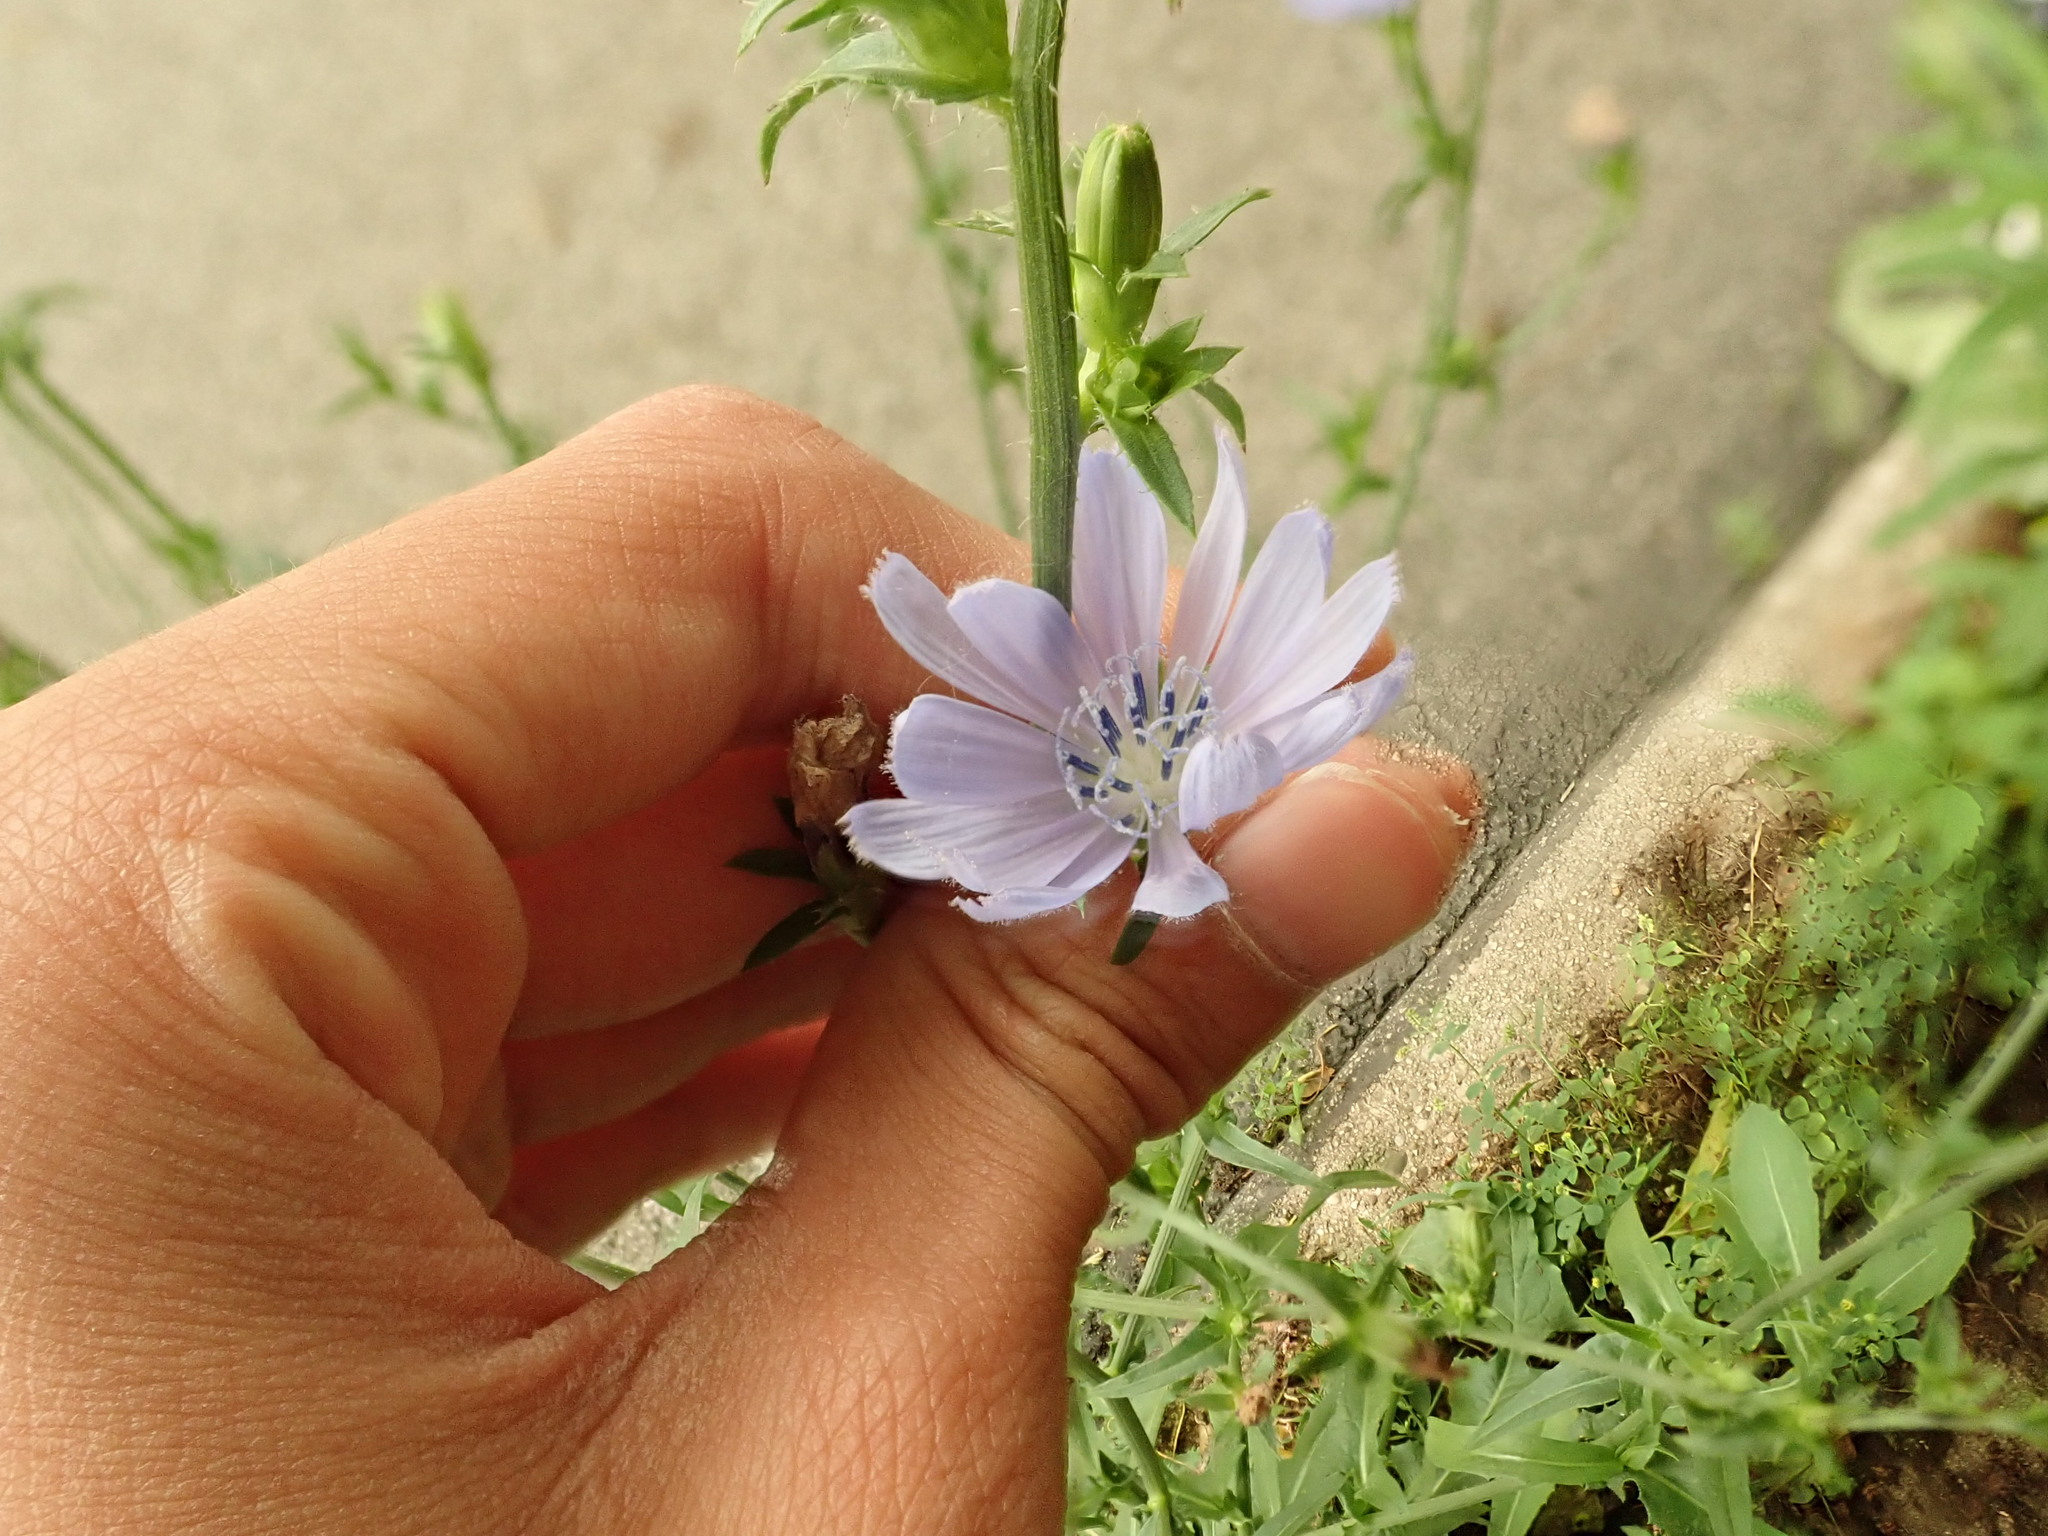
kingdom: Plantae
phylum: Tracheophyta
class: Magnoliopsida
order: Asterales
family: Asteraceae
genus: Cichorium
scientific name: Cichorium intybus
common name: Chicory
